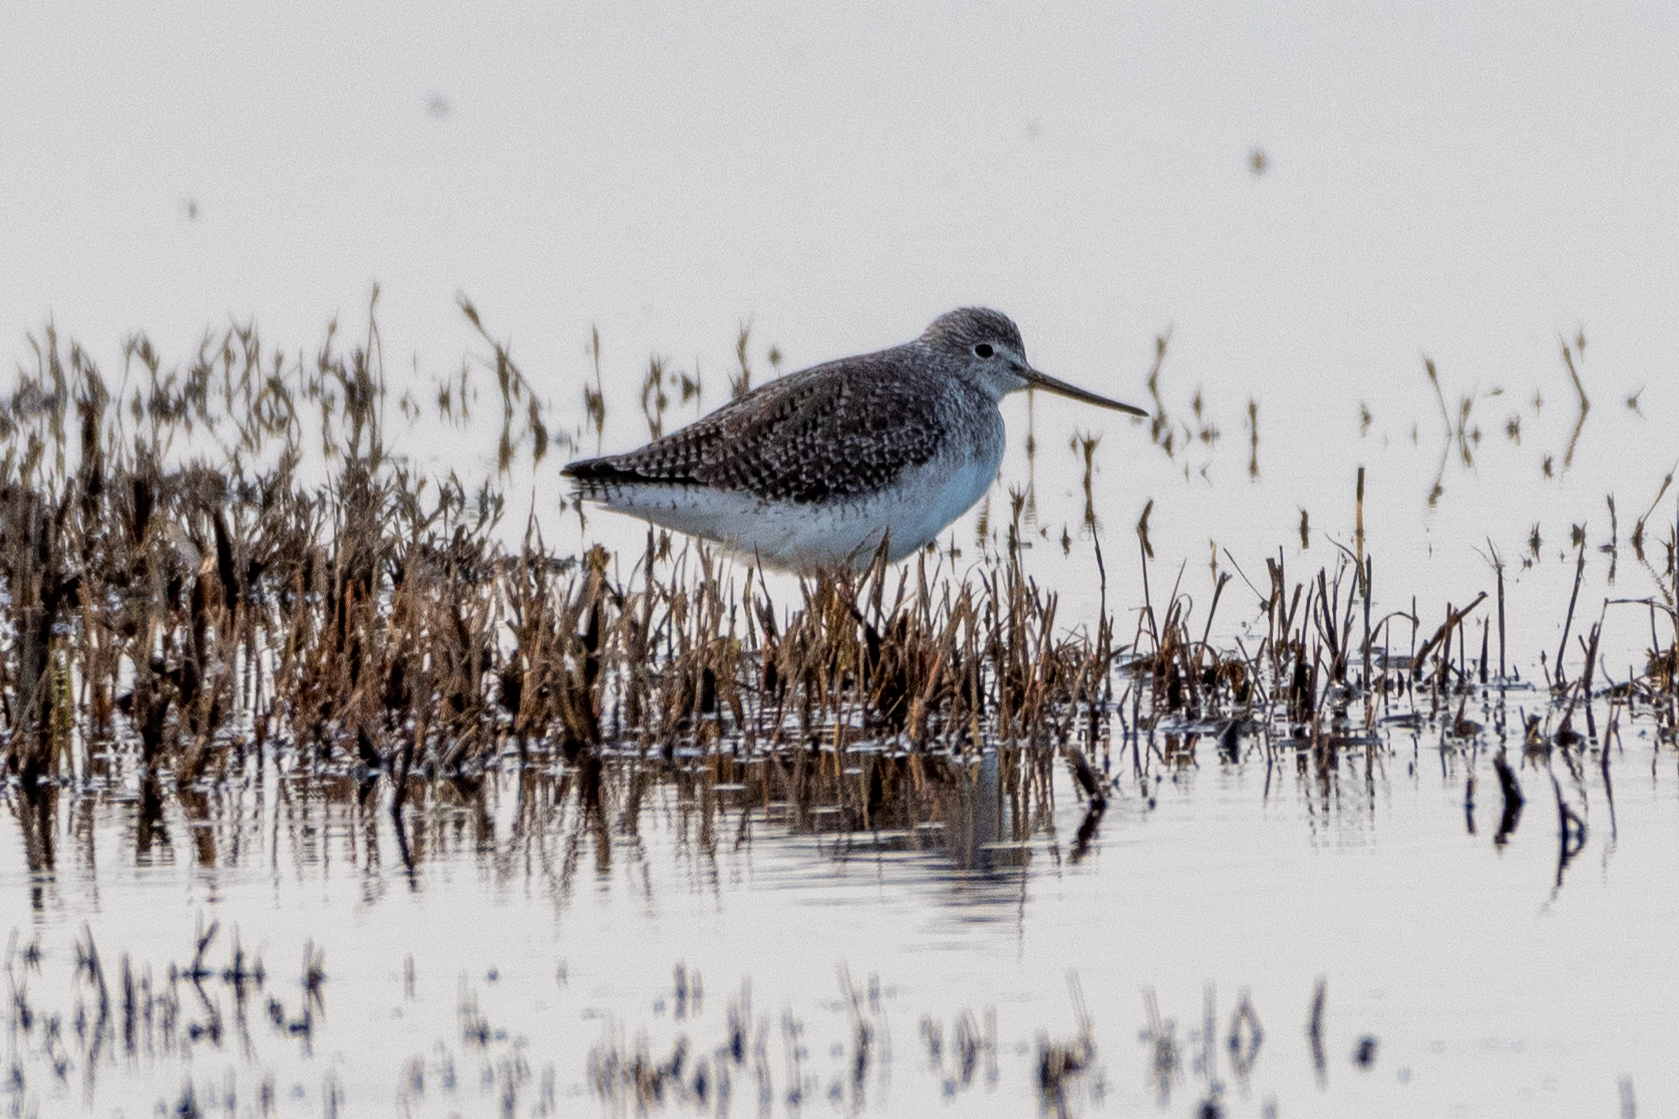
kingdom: Animalia
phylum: Chordata
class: Aves
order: Charadriiformes
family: Scolopacidae
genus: Tringa
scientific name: Tringa melanoleuca
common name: Greater yellowlegs
